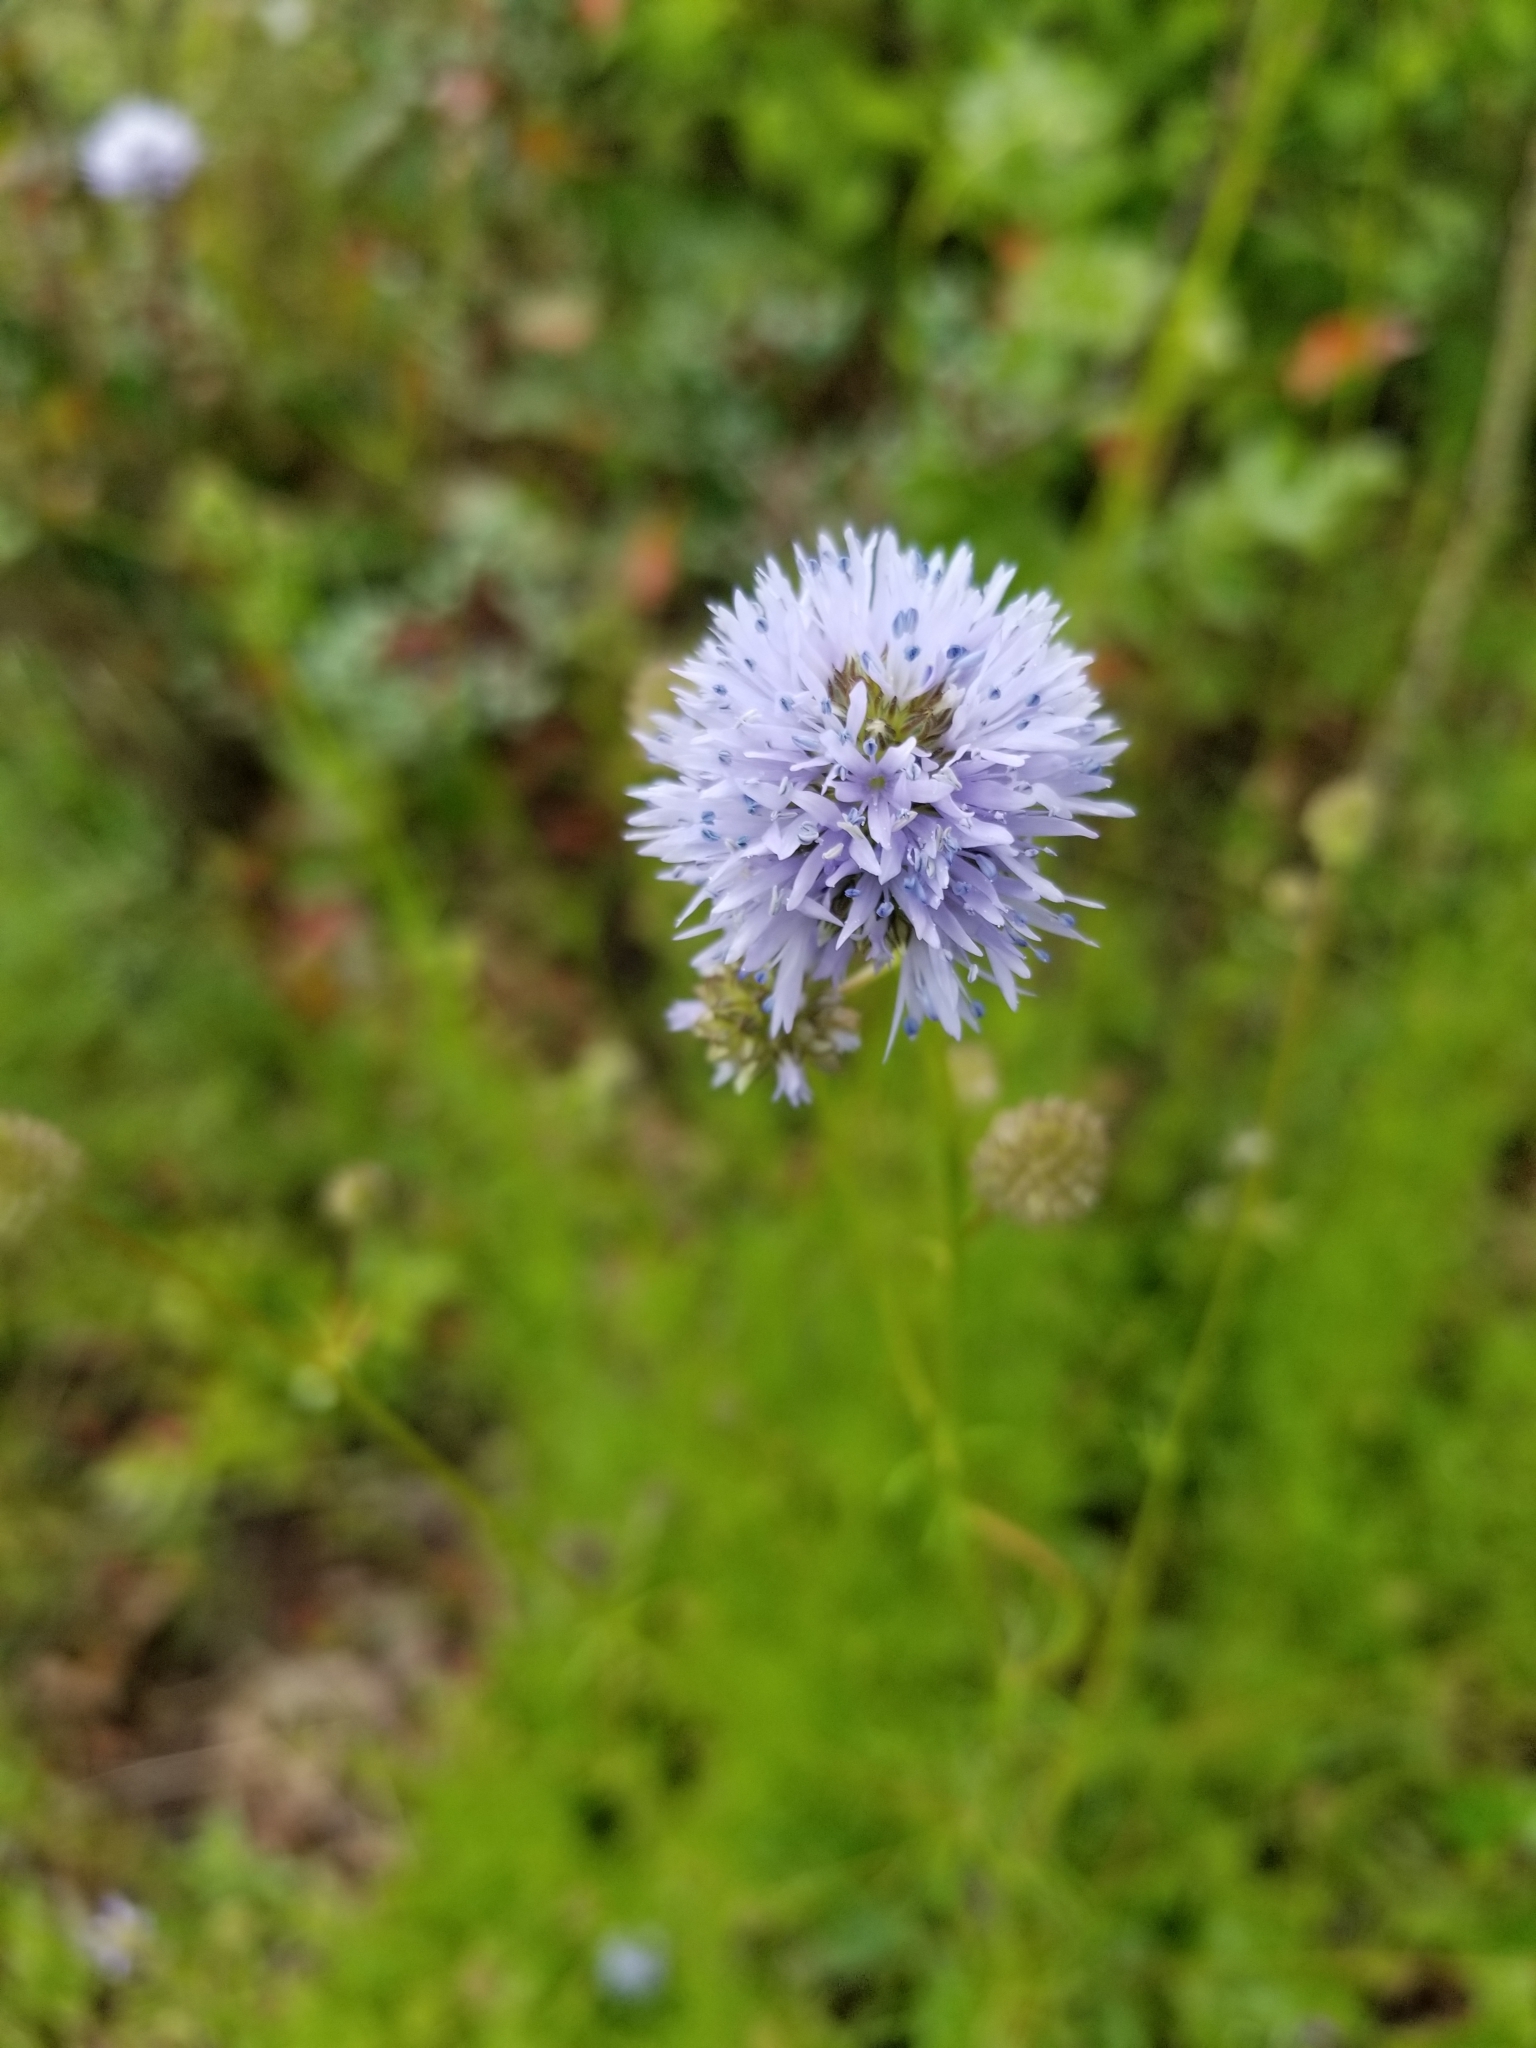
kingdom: Plantae
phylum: Tracheophyta
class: Magnoliopsida
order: Ericales
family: Polemoniaceae
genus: Gilia
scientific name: Gilia capitata
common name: Bluehead gilia
